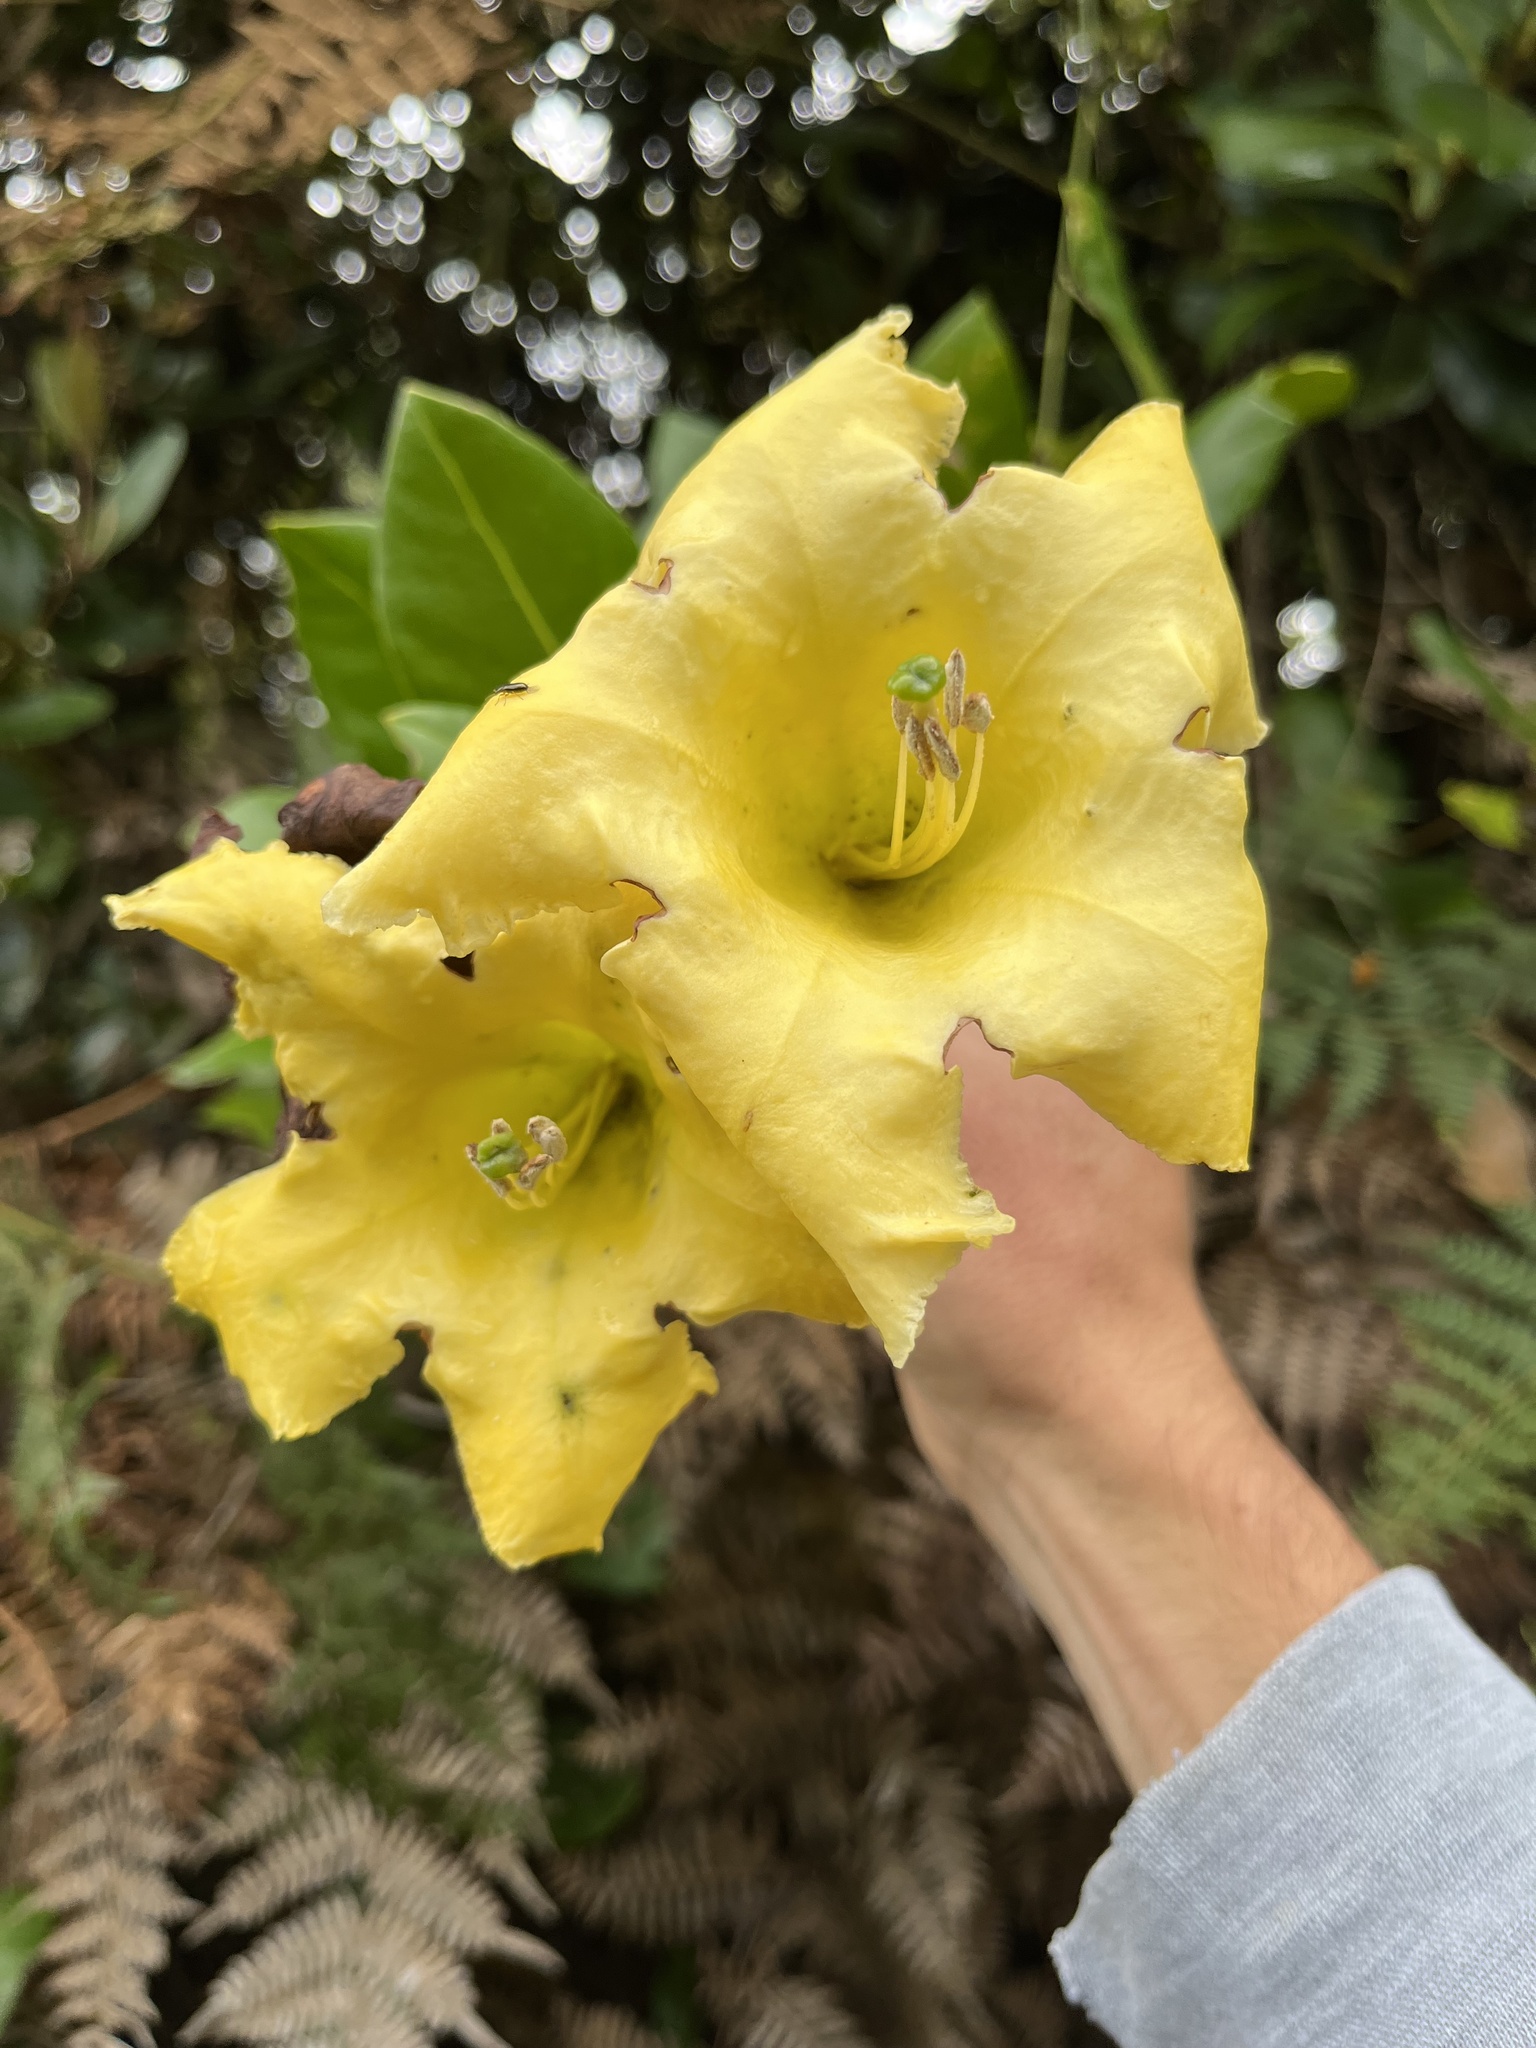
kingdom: Plantae
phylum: Tracheophyta
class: Magnoliopsida
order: Solanales
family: Solanaceae
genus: Schultesianthus
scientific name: Schultesianthus coriaceus
